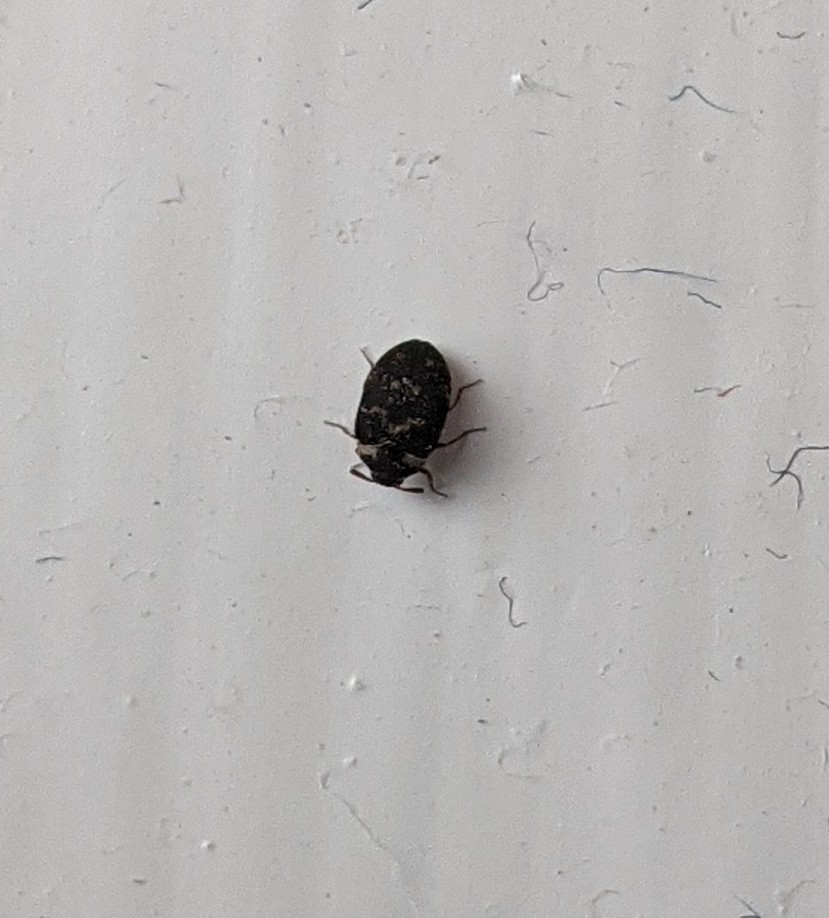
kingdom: Animalia
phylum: Arthropoda
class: Insecta
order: Coleoptera
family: Dermestidae
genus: Anthrenus
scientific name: Anthrenus fuscus
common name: Mill carpet beetle
